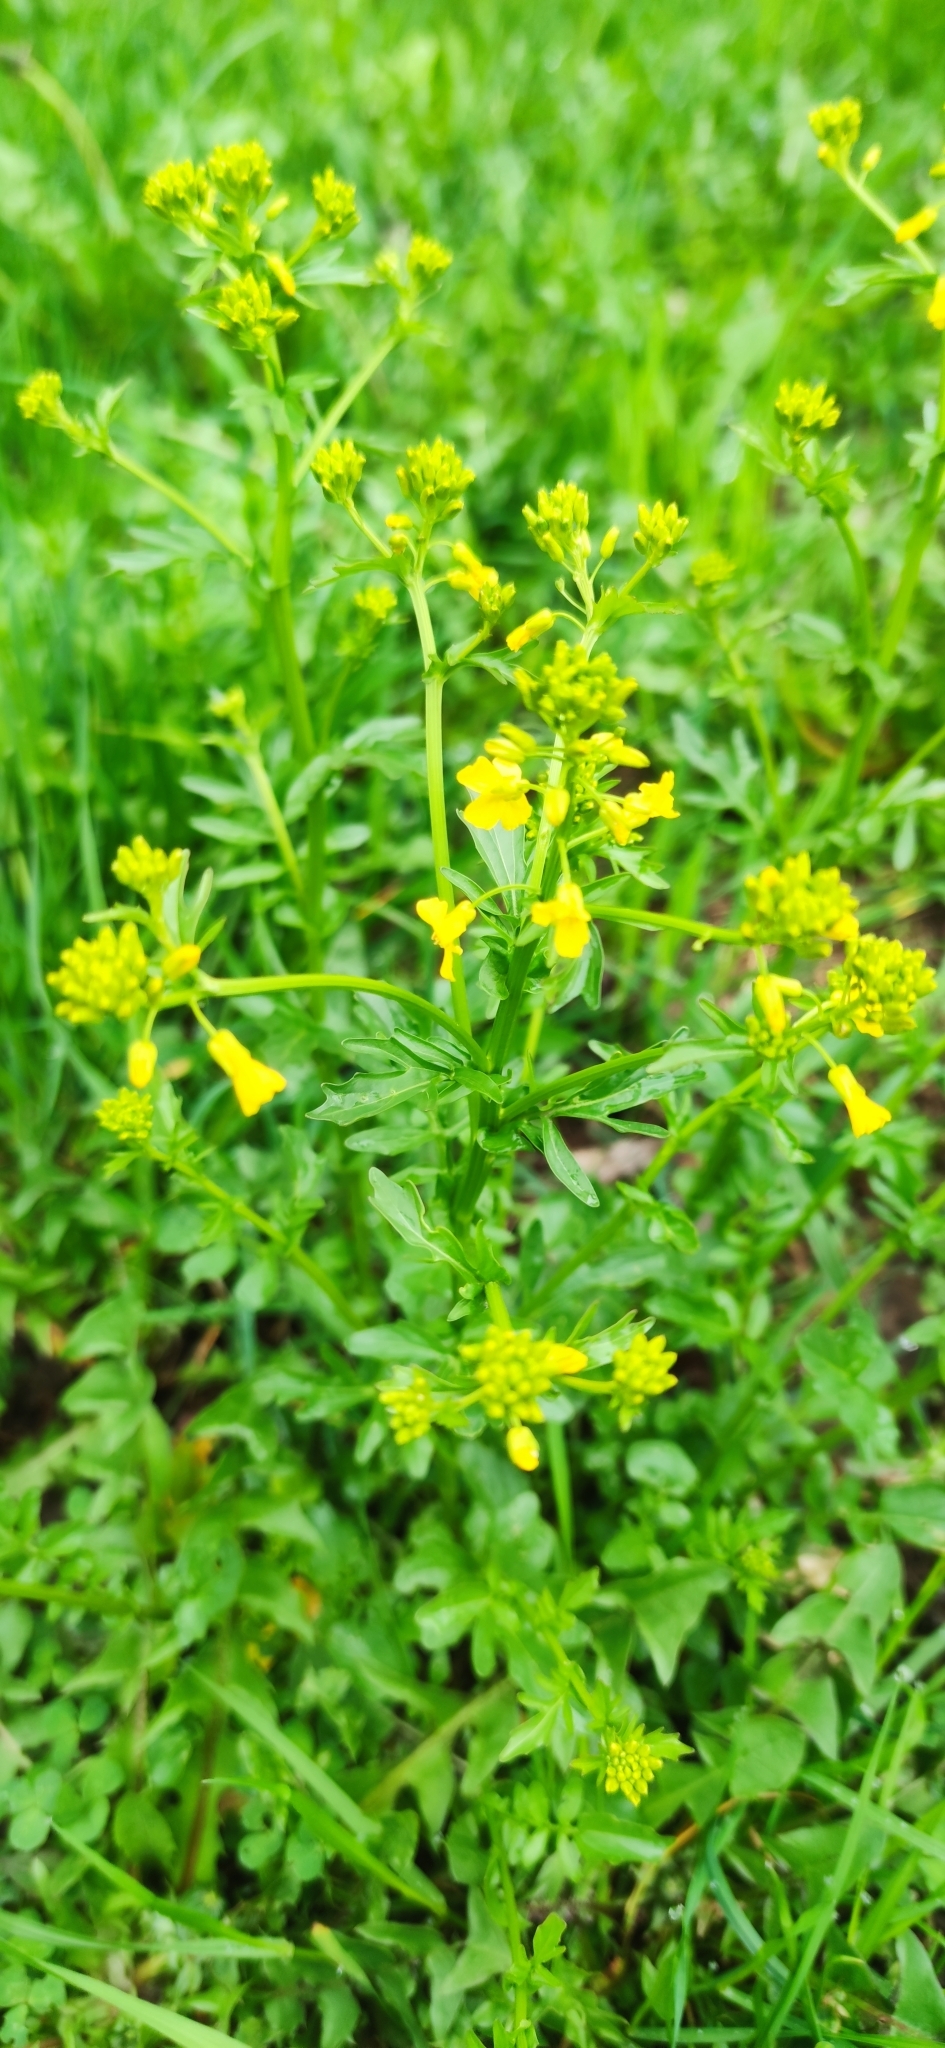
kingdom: Plantae
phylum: Tracheophyta
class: Magnoliopsida
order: Brassicales
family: Brassicaceae
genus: Barbarea
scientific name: Barbarea vulgaris
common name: Cressy-greens
